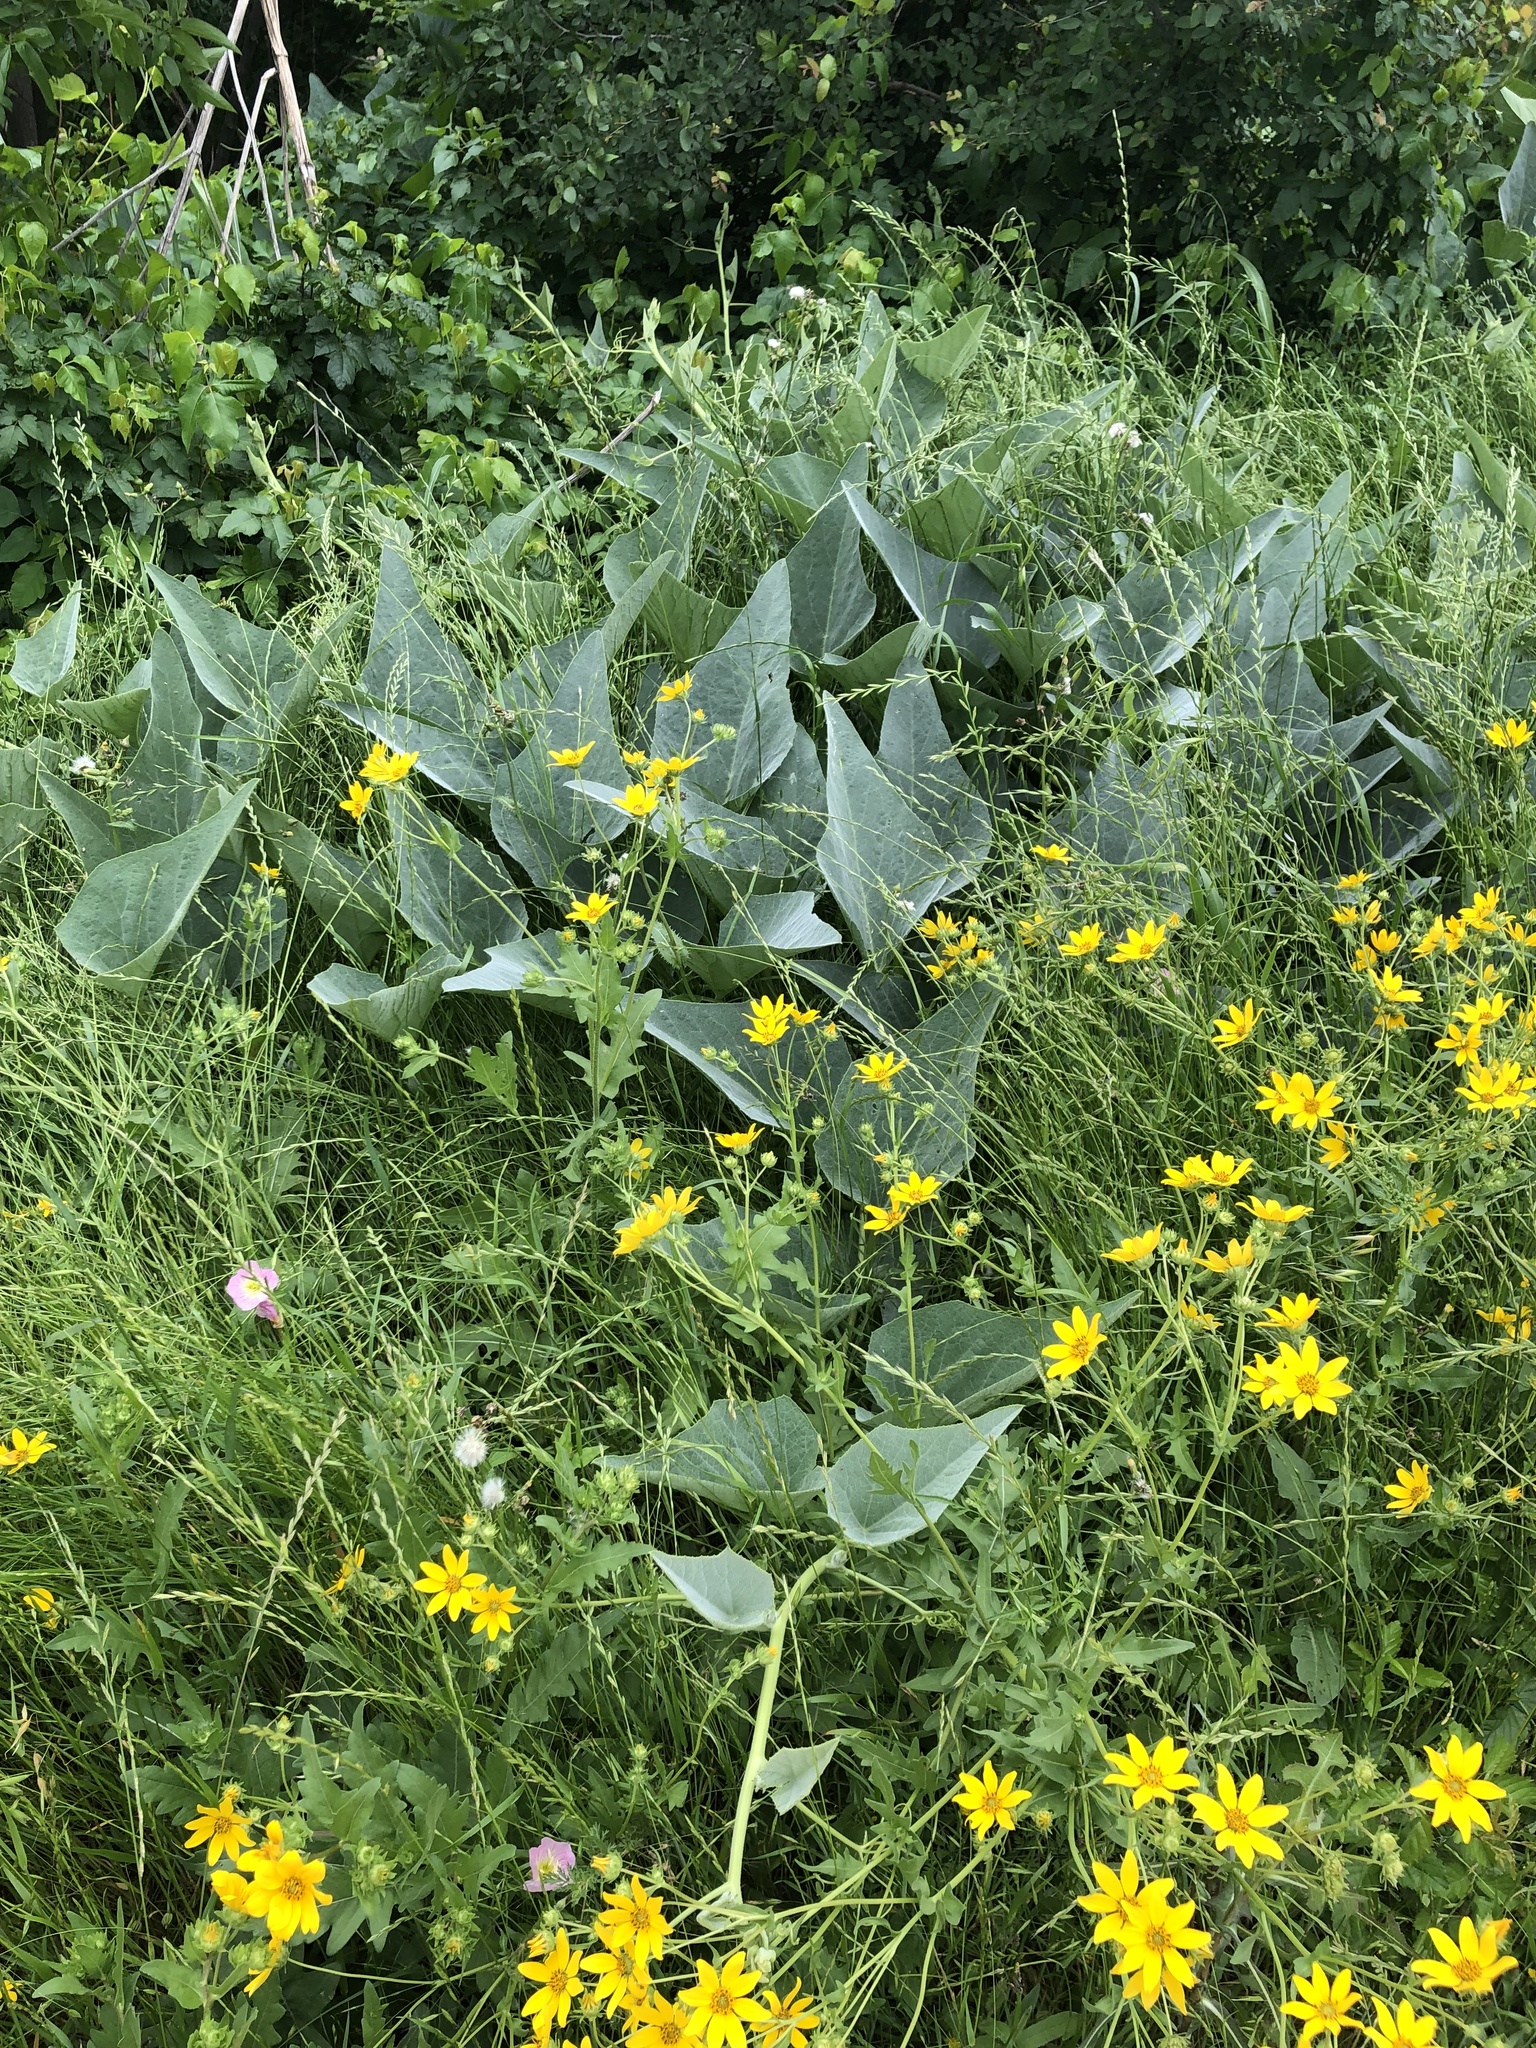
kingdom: Plantae
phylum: Tracheophyta
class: Magnoliopsida
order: Cucurbitales
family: Cucurbitaceae
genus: Cucurbita
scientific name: Cucurbita foetidissima
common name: Buffalo gourd
